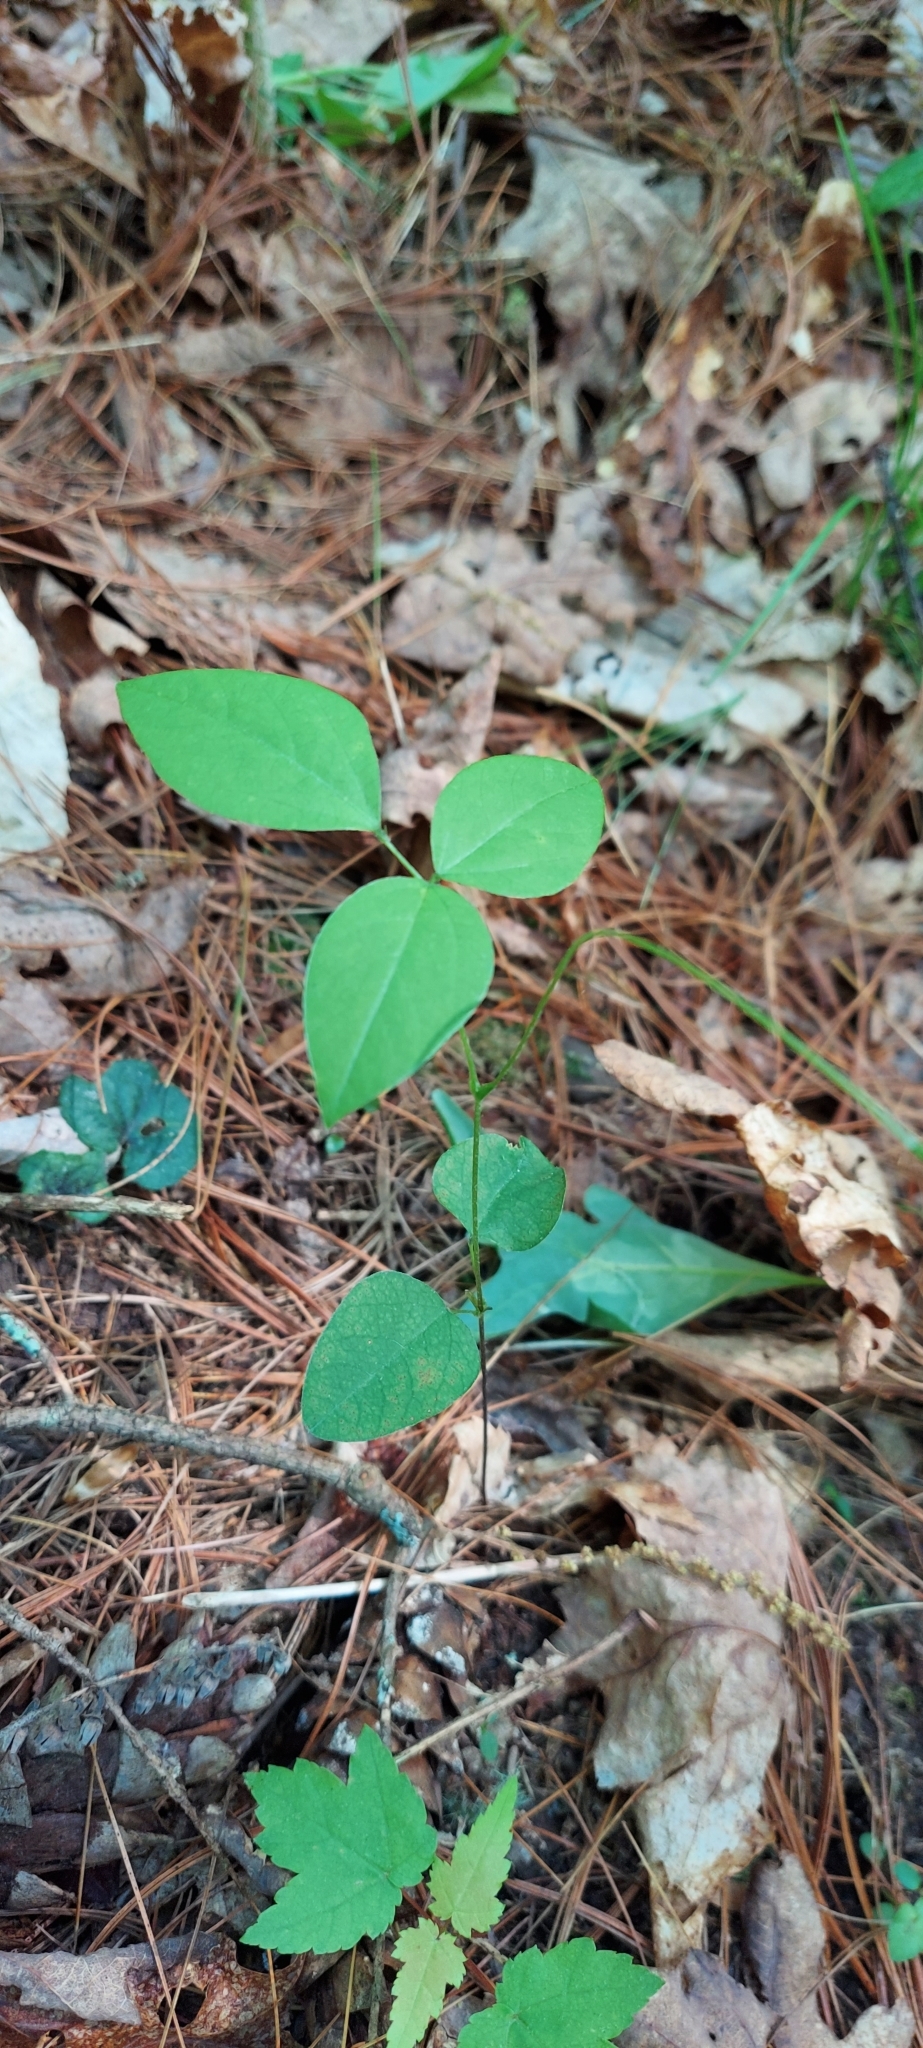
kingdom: Plantae
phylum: Tracheophyta
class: Magnoliopsida
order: Fabales
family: Fabaceae
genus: Clitoria
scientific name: Clitoria mariana
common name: Butterfly-pea
